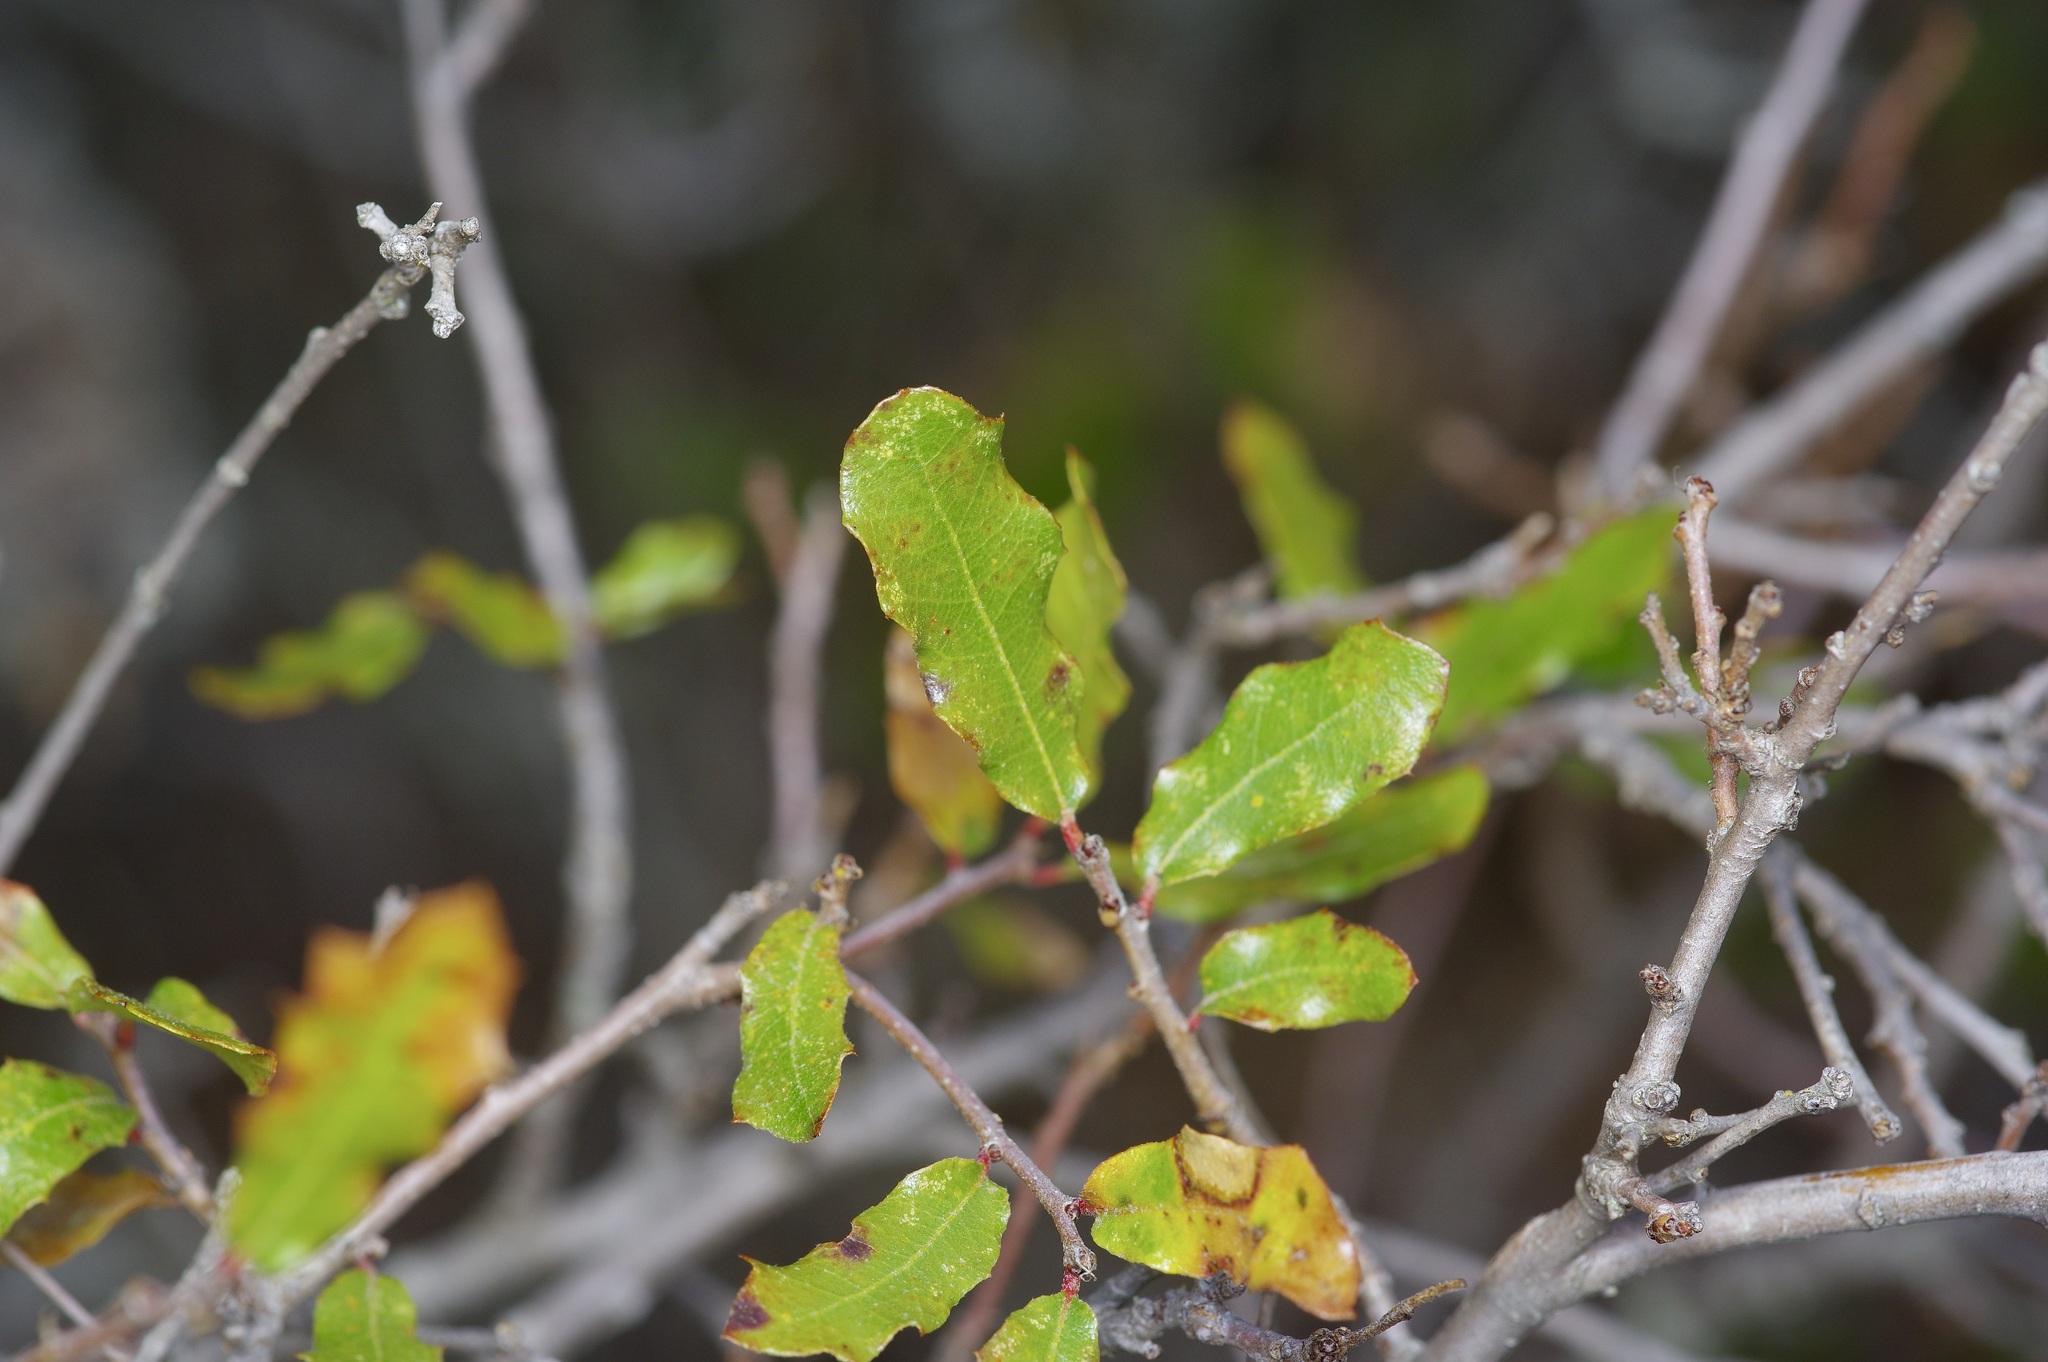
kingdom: Plantae
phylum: Tracheophyta
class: Magnoliopsida
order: Fagales
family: Fagaceae
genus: Quercus
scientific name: Quercus vaseyana
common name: Sandpaper oak
